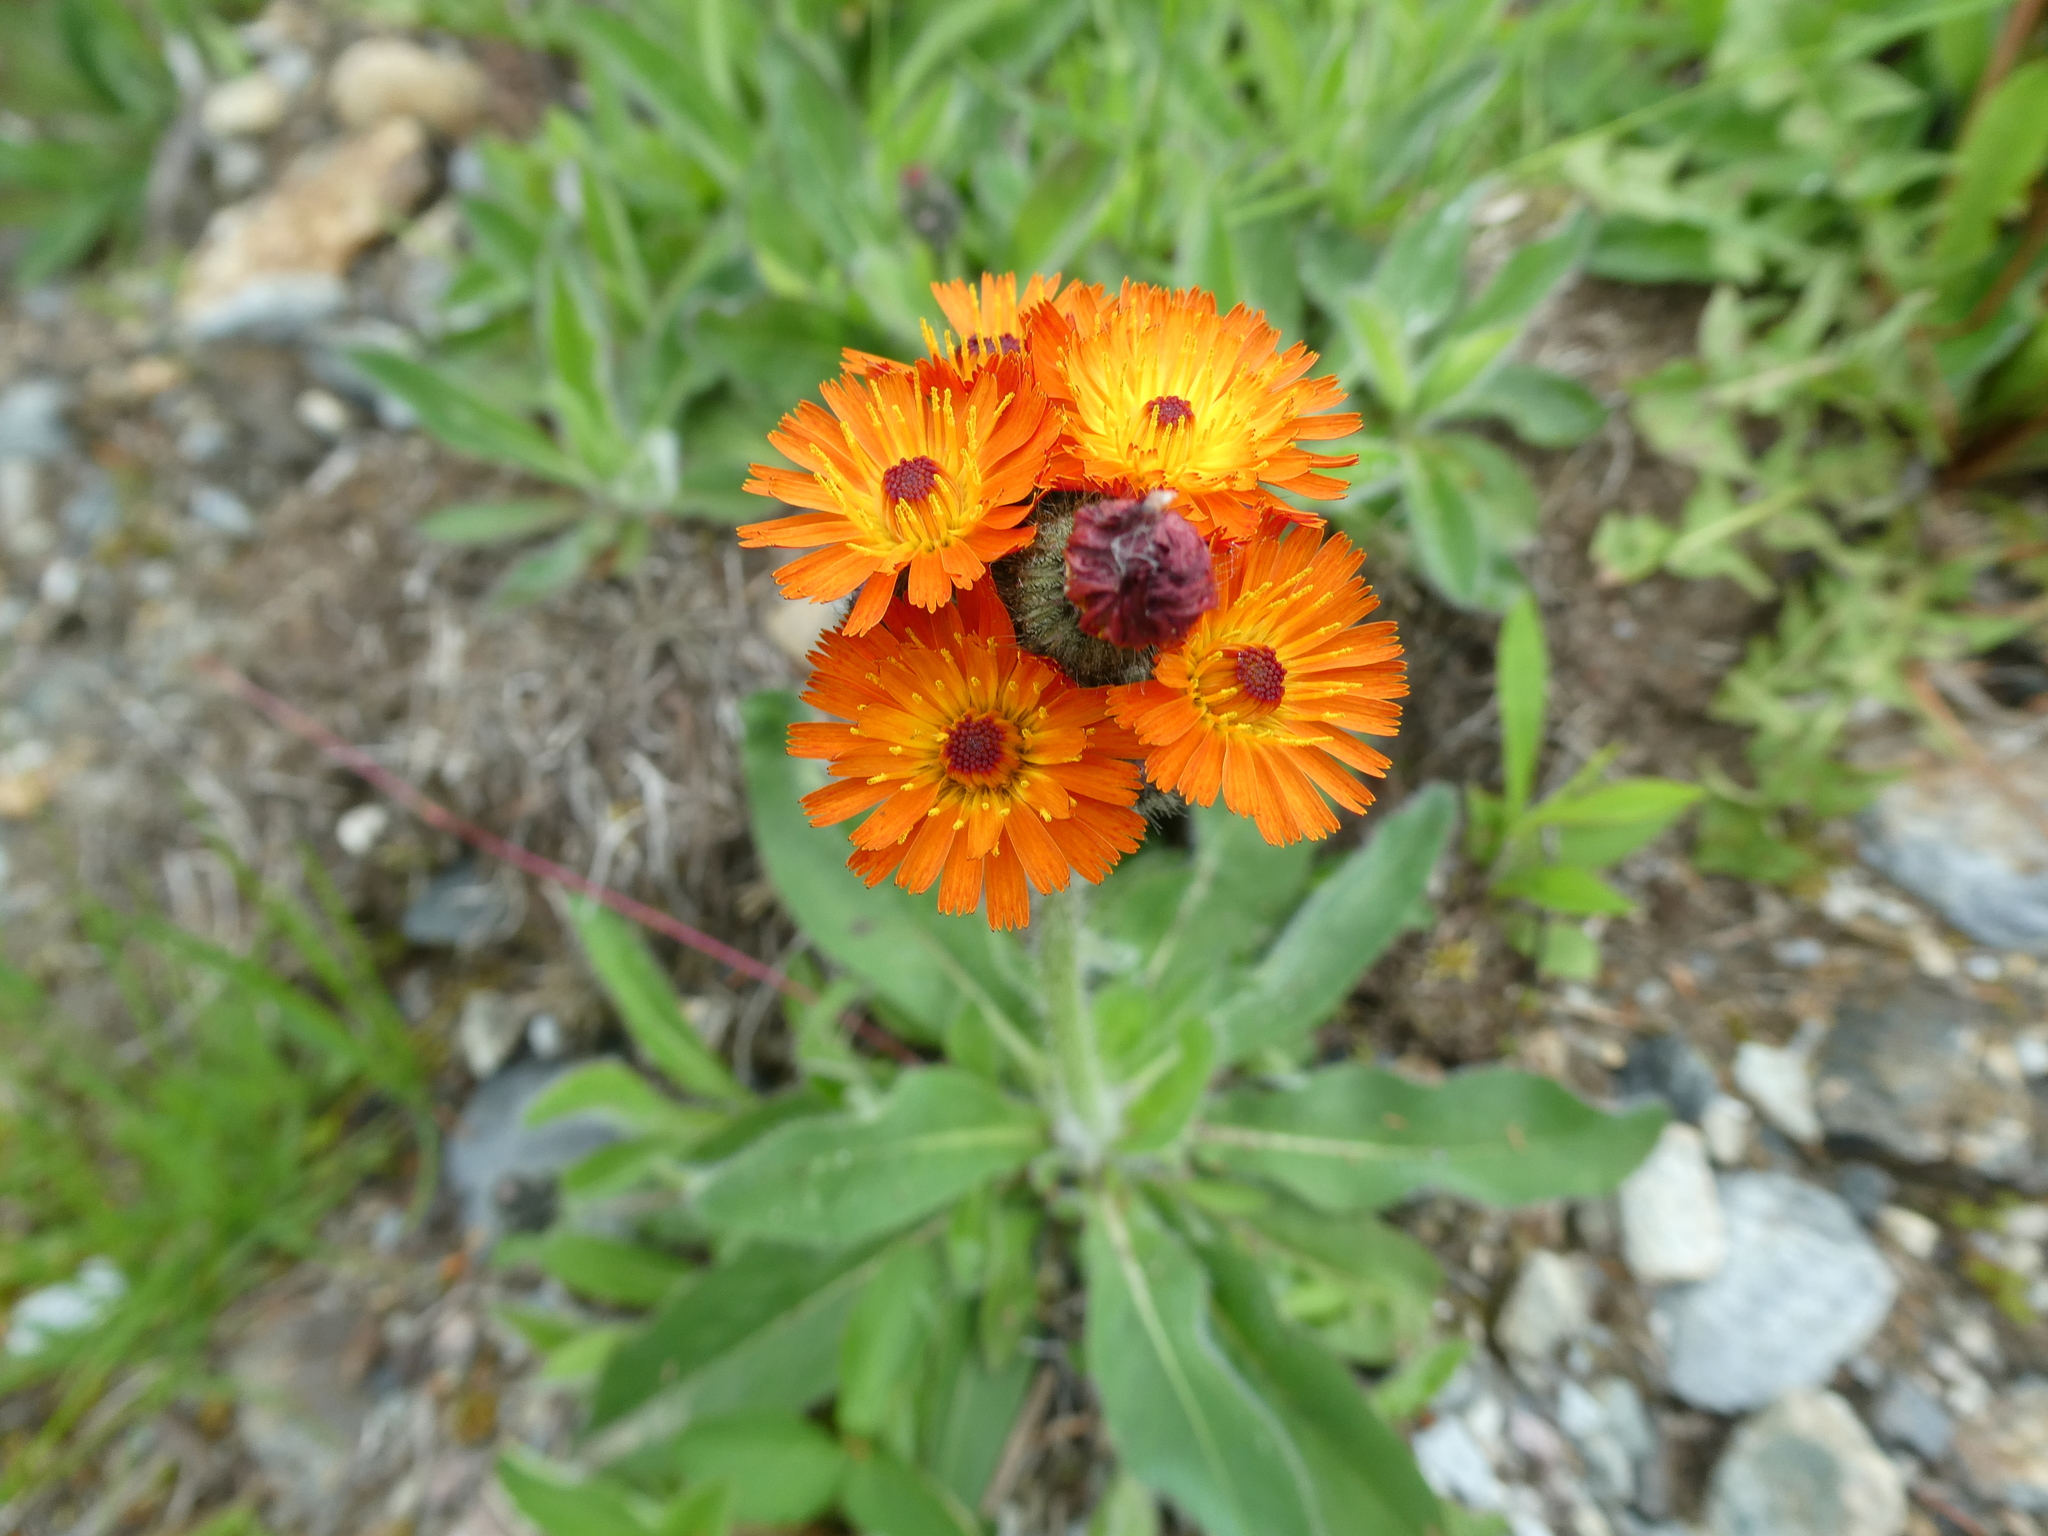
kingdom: Plantae
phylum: Tracheophyta
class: Magnoliopsida
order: Asterales
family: Asteraceae
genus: Pilosella
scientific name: Pilosella aurantiaca
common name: Fox-and-cubs
